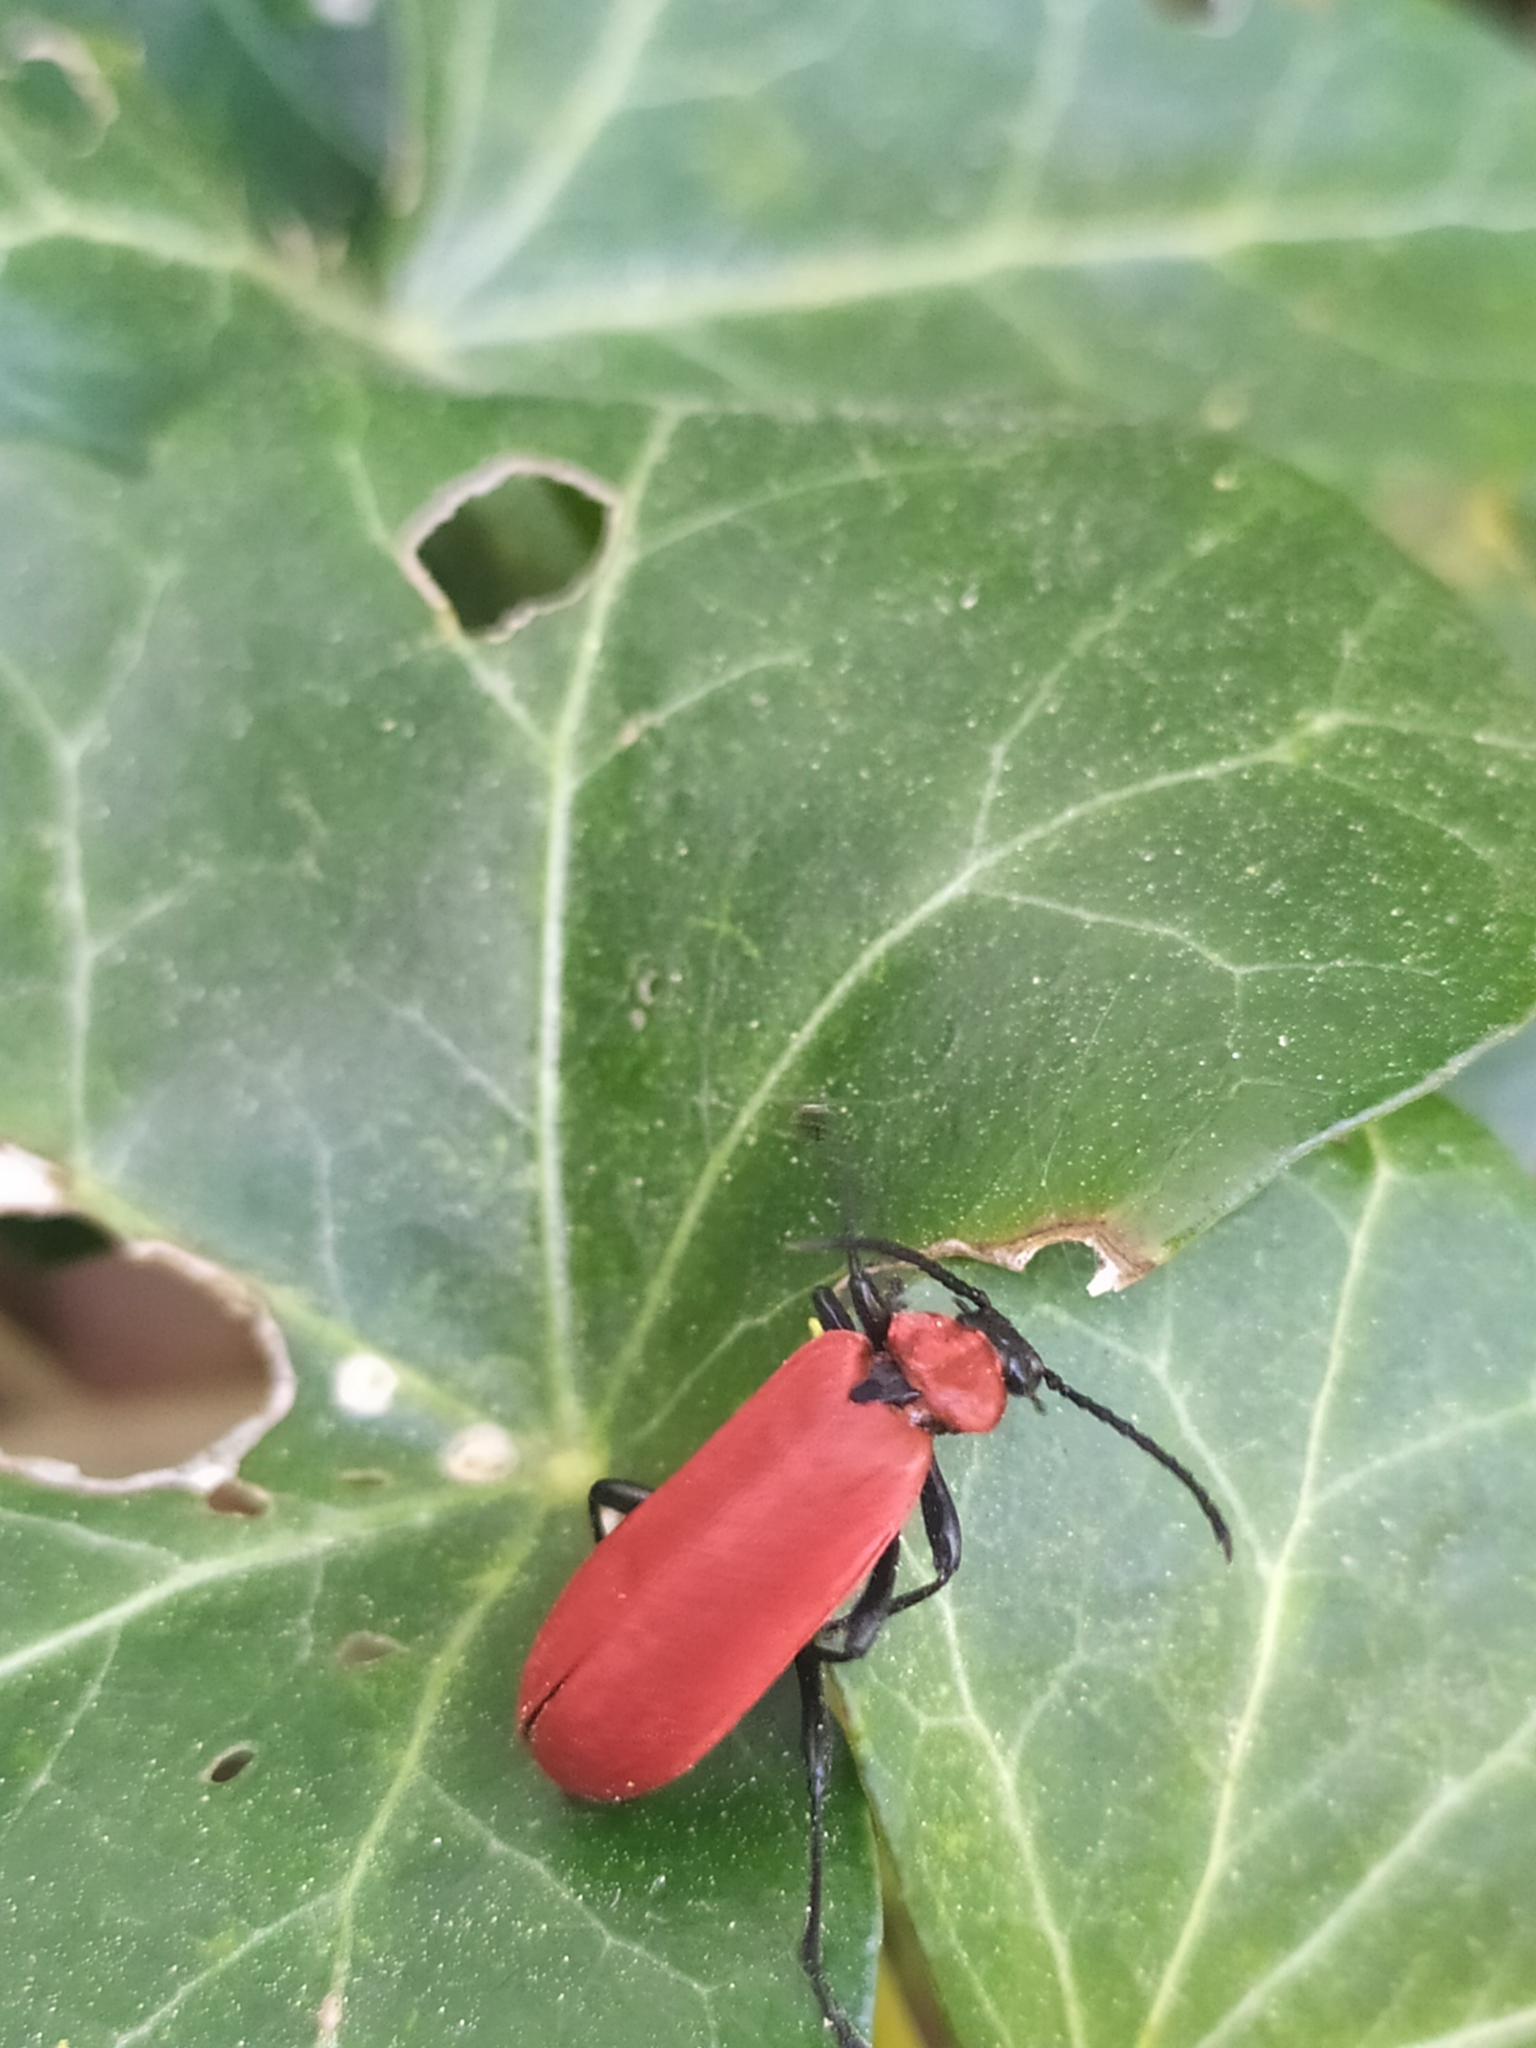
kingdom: Animalia
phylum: Arthropoda
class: Insecta
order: Coleoptera
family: Pyrochroidae
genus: Pyrochroa
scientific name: Pyrochroa coccinea
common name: Black-headed cardinal beetle
